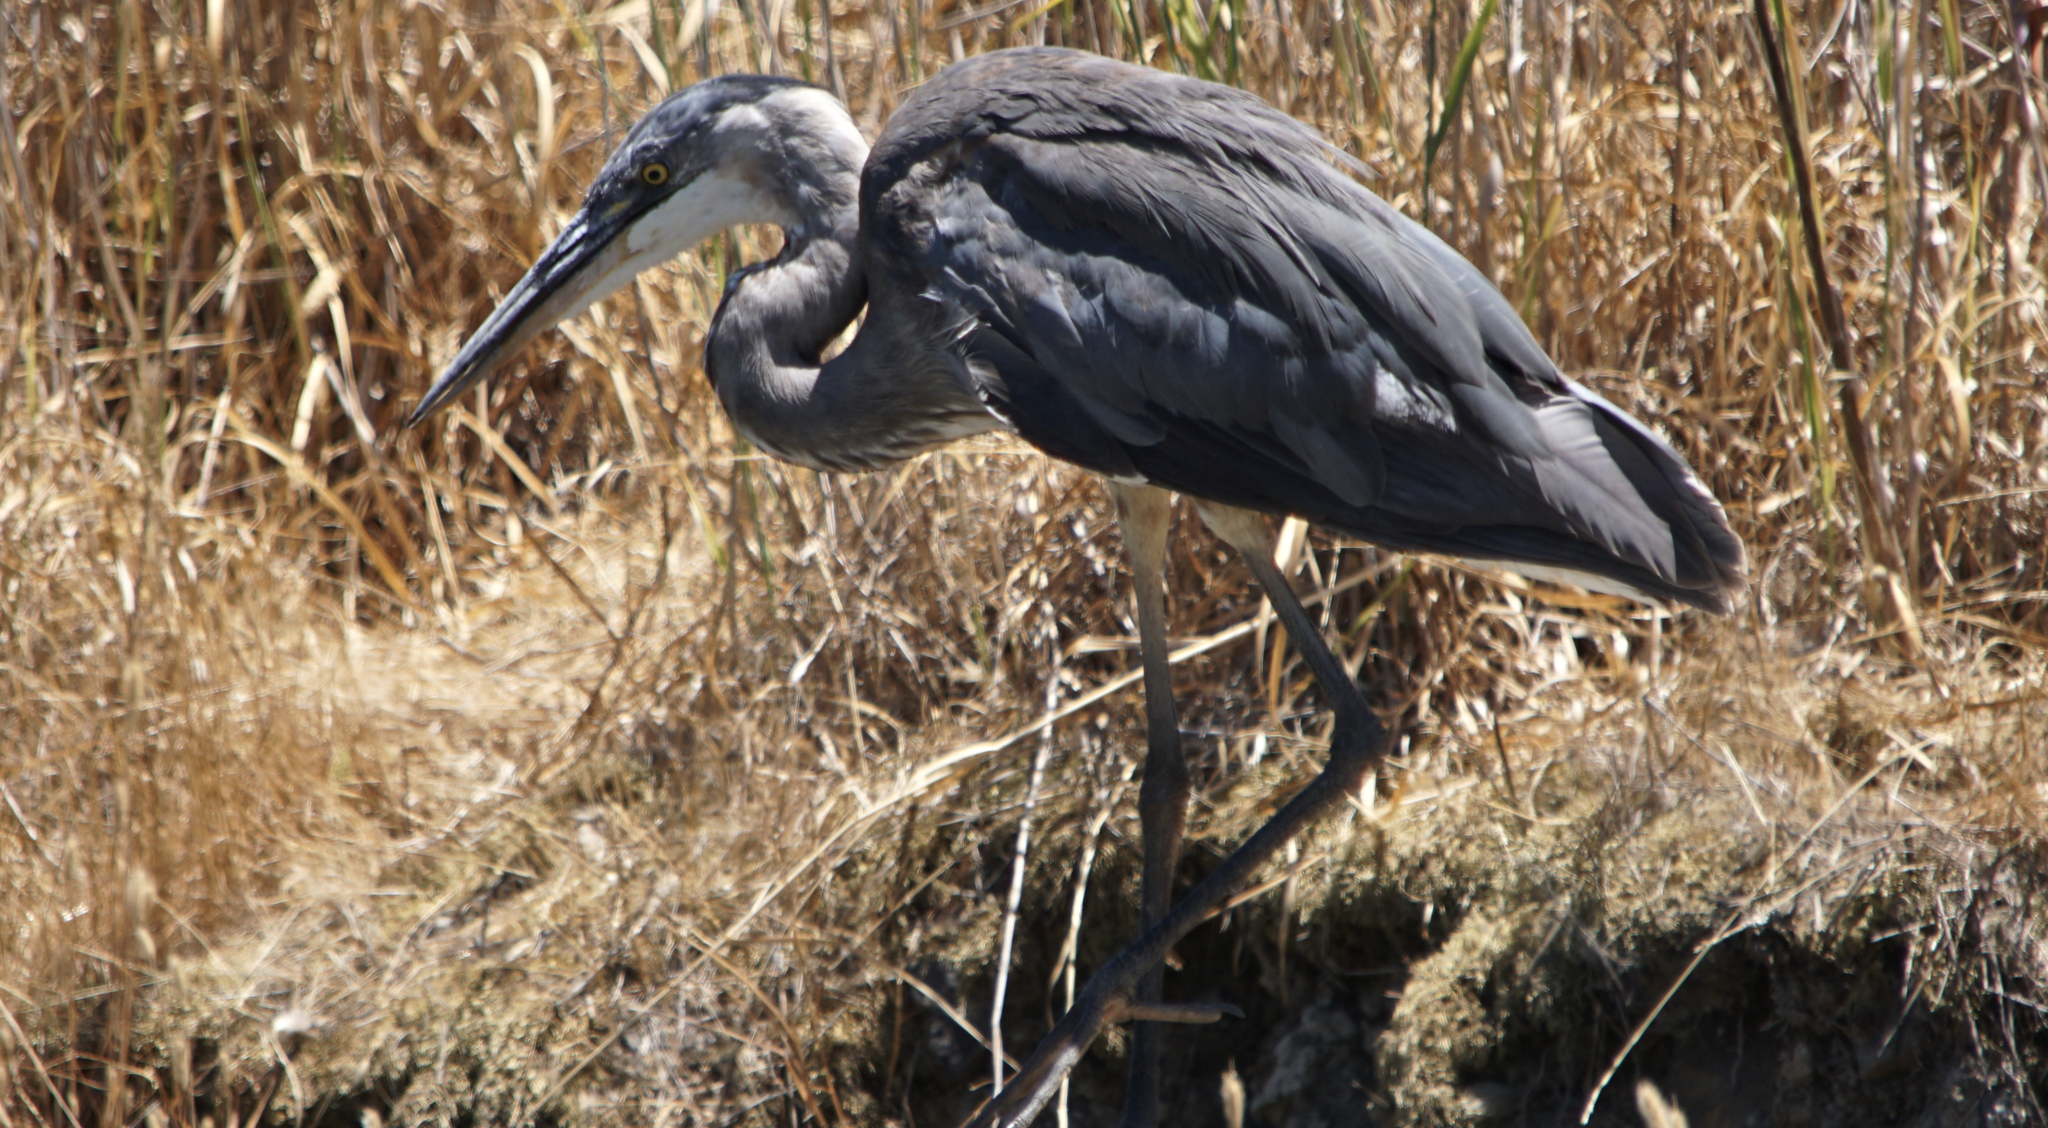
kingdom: Animalia
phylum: Chordata
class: Aves
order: Pelecaniformes
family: Ardeidae
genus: Ardea
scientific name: Ardea herodias
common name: Great blue heron
